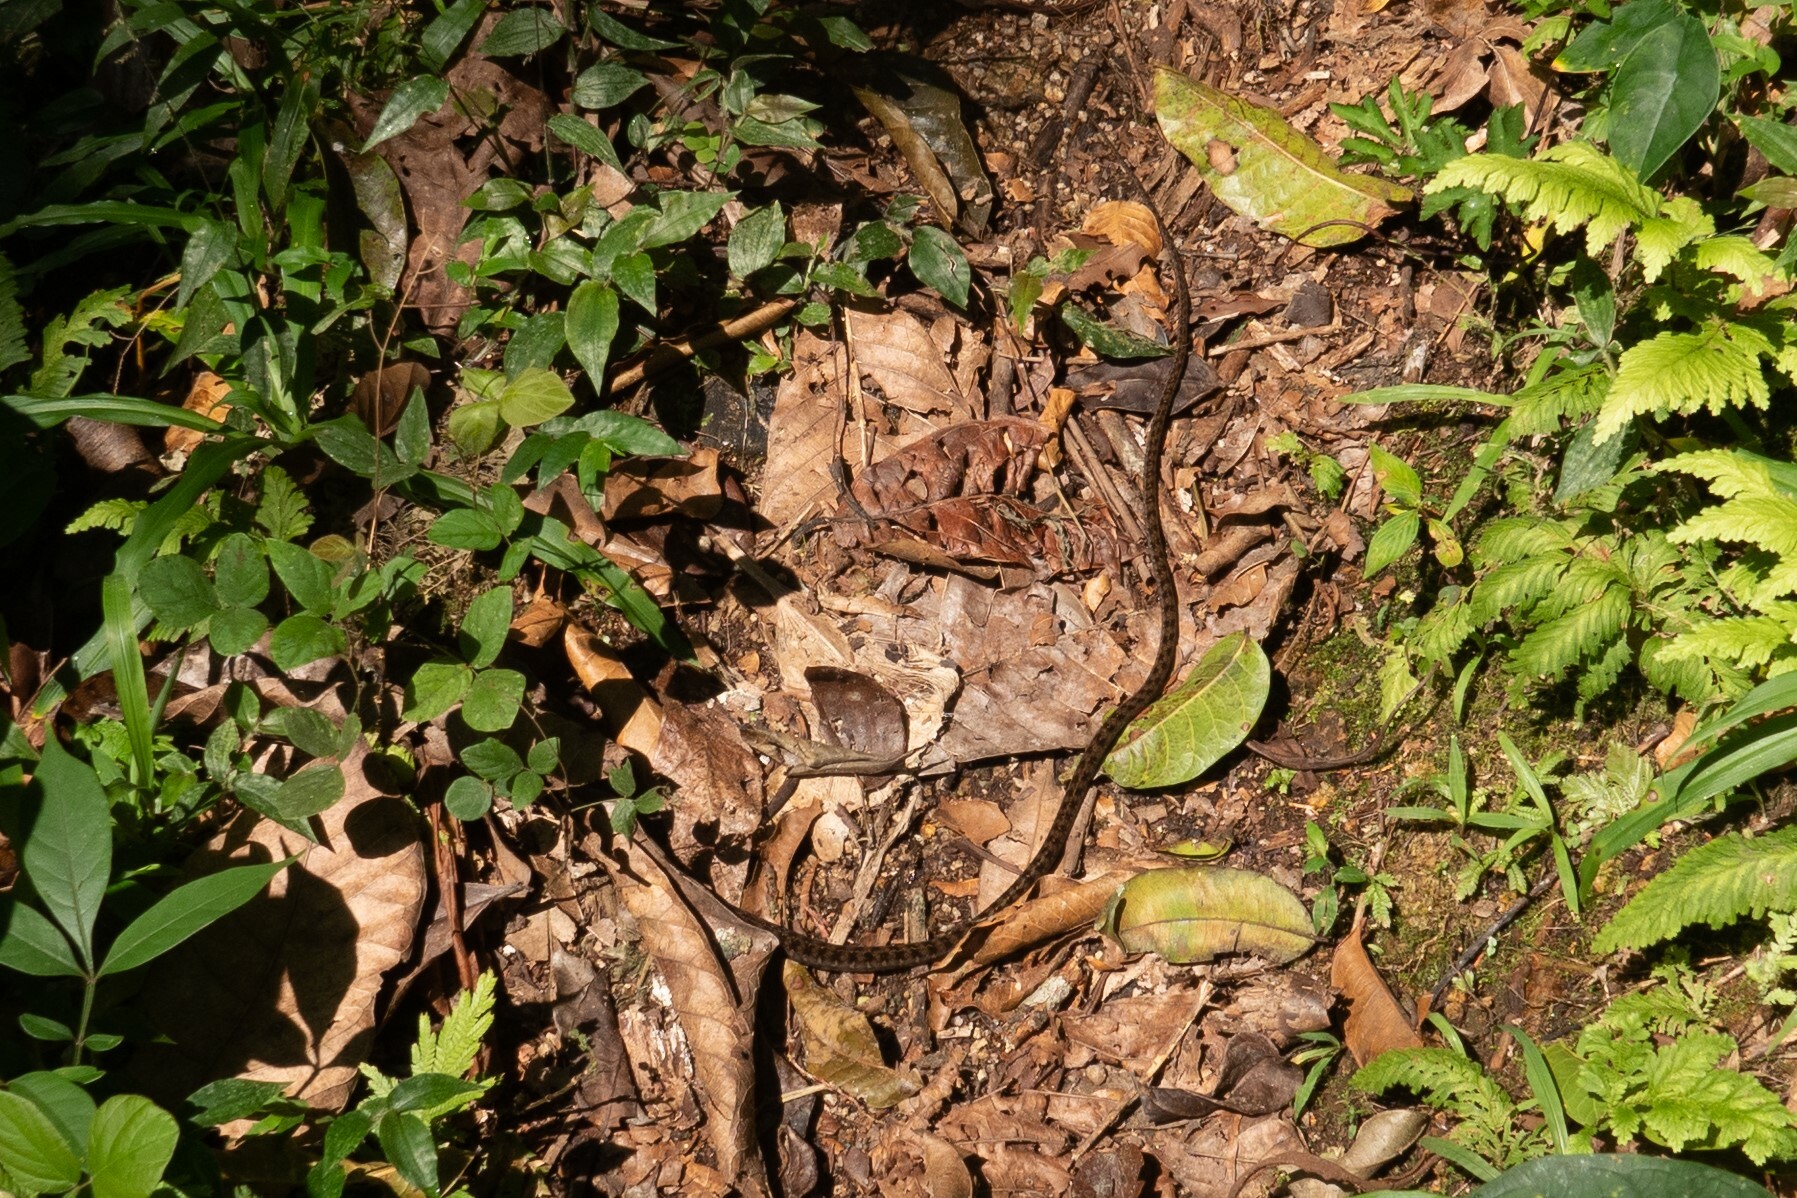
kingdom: Animalia
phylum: Chordata
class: Squamata
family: Colubridae
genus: Dendrophidion
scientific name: Dendrophidion dendrophis
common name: Olive forest racer
